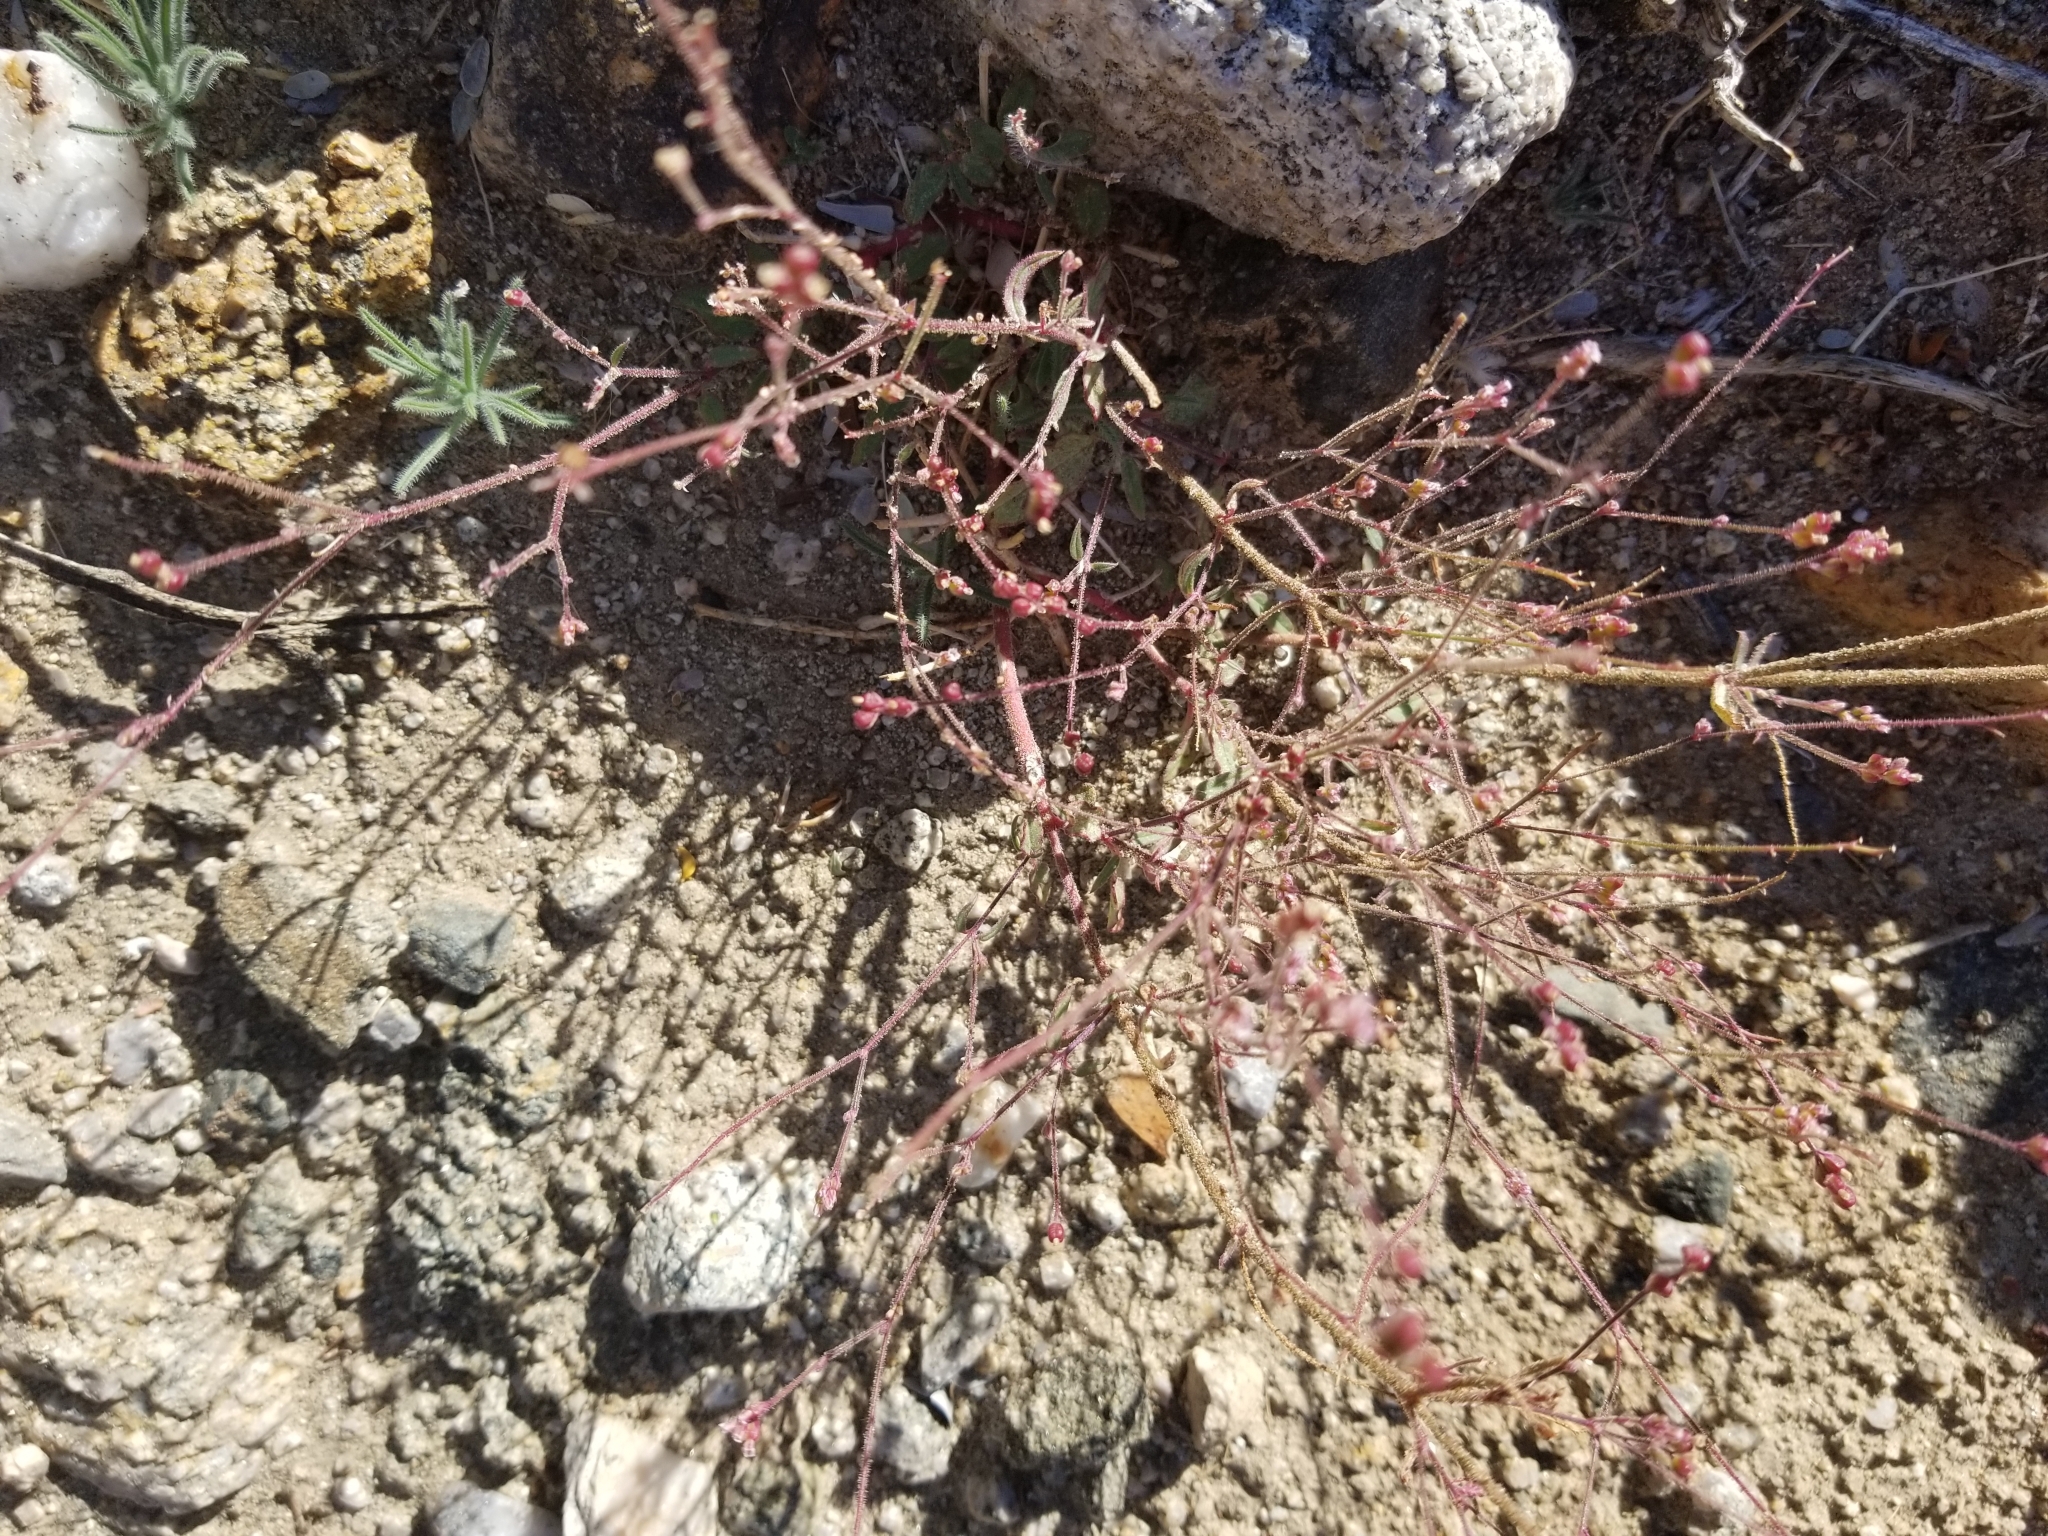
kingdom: Plantae
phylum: Tracheophyta
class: Magnoliopsida
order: Caryophyllales
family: Nyctaginaceae
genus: Boerhavia
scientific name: Boerhavia wrightii
